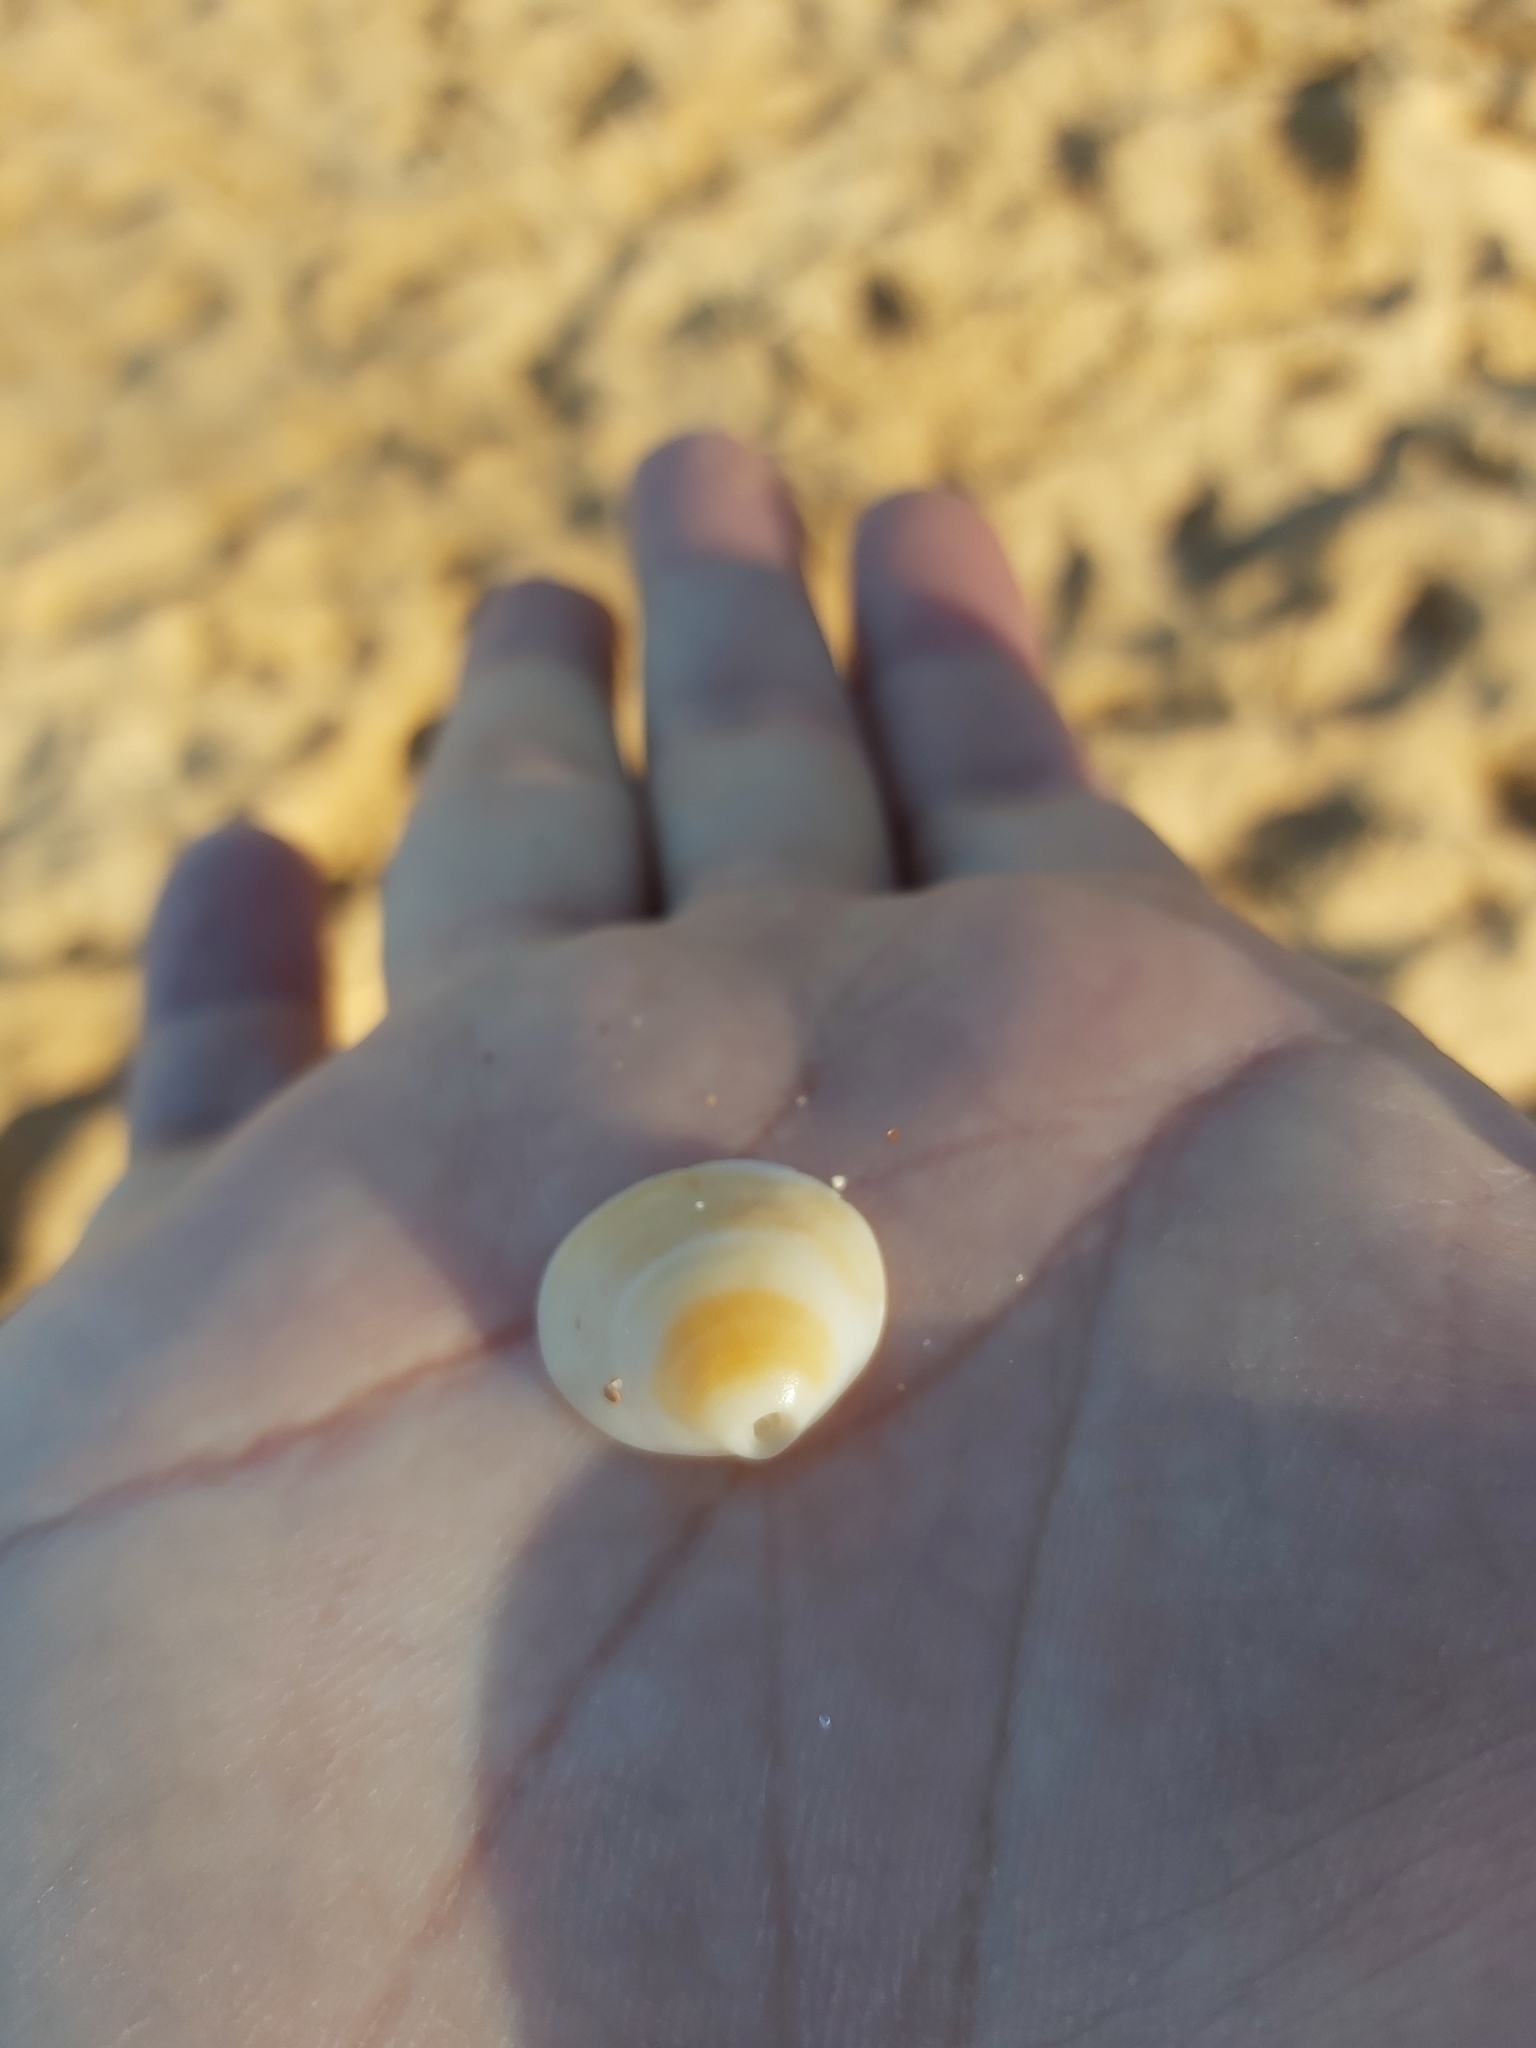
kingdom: Animalia
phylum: Mollusca
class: Bivalvia
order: Arcida
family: Glycymerididae
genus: Glycymeris
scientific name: Glycymeris grayana
